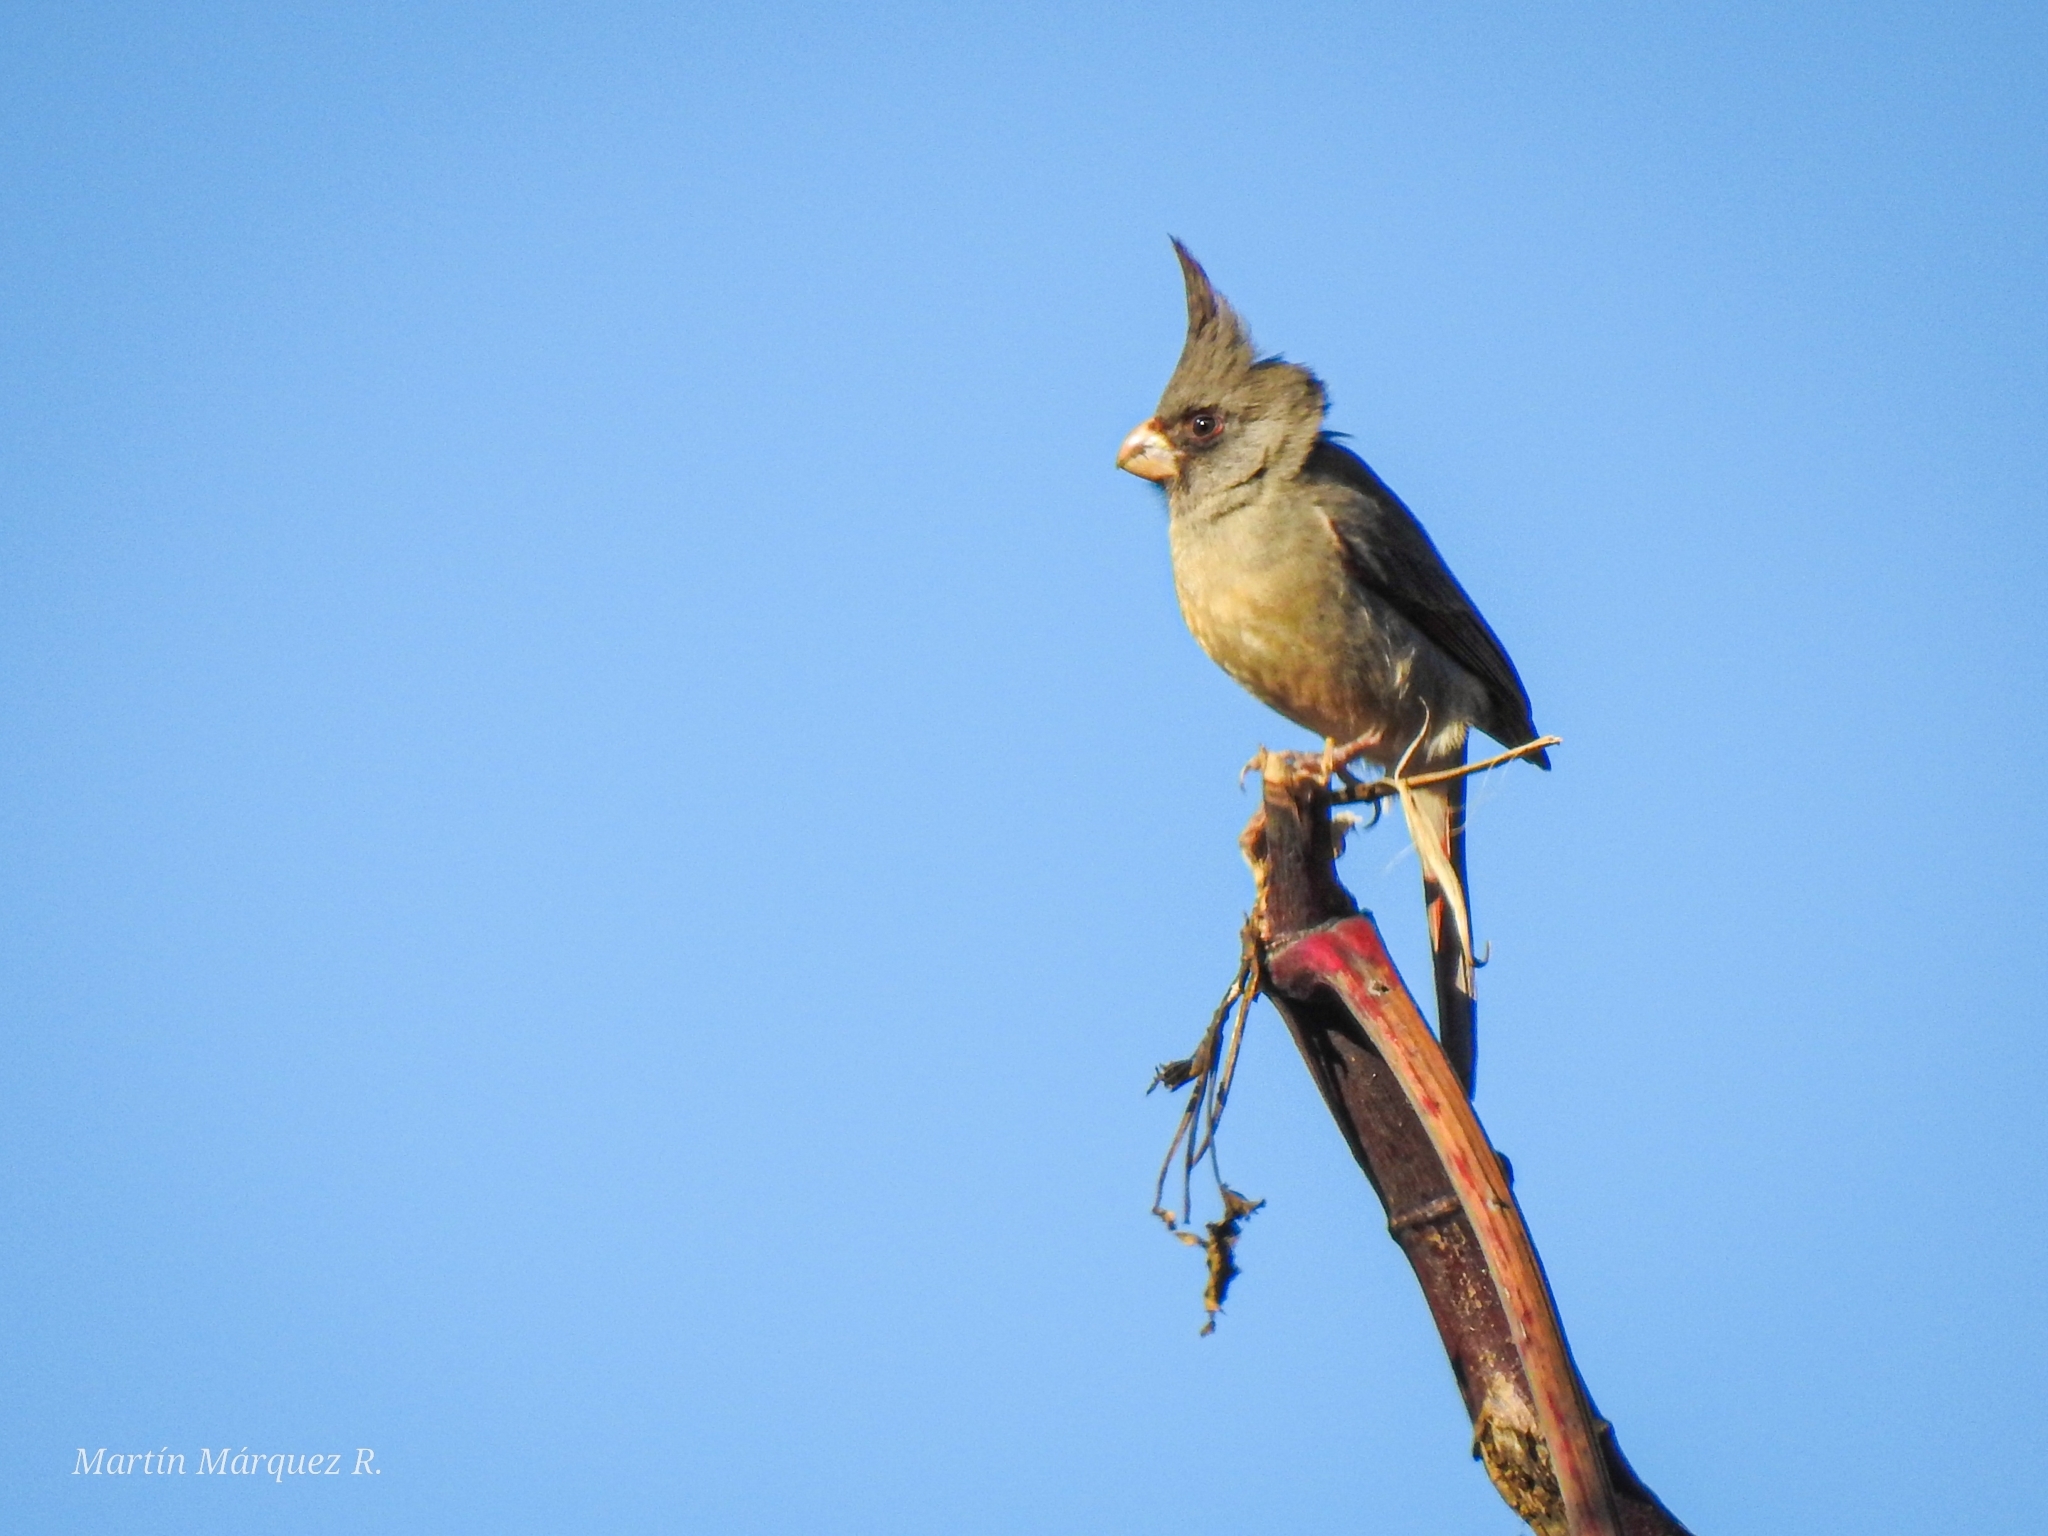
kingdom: Animalia
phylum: Chordata
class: Aves
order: Passeriformes
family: Cardinalidae
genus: Cardinalis
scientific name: Cardinalis sinuatus
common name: Pyrrhuloxia
